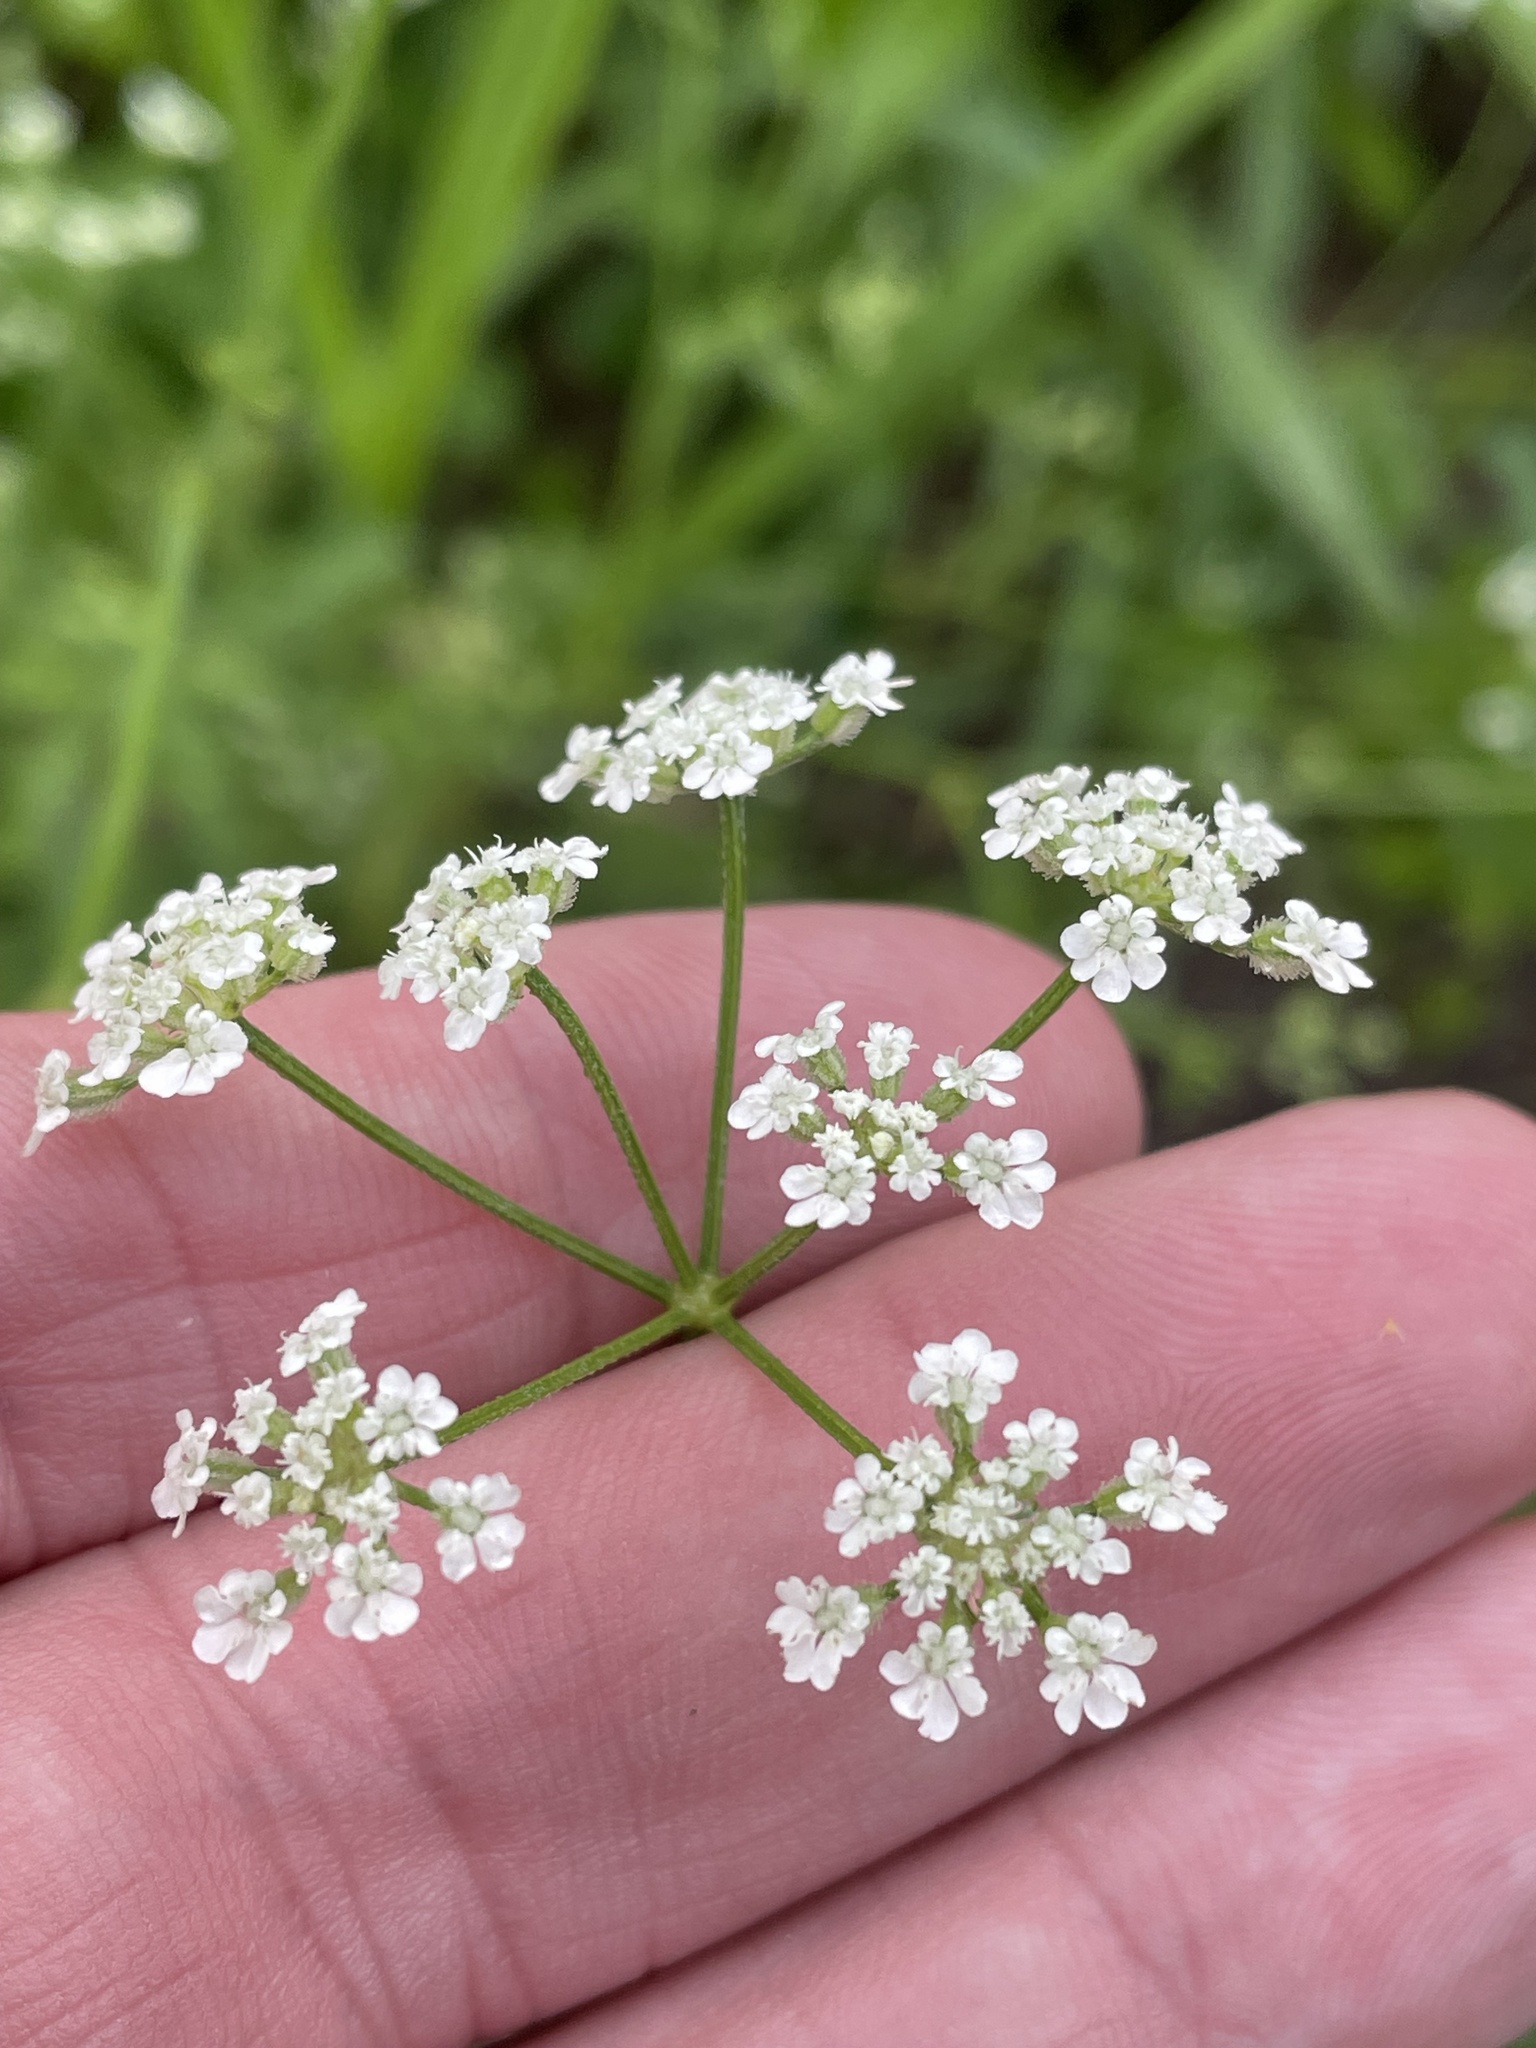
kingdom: Plantae
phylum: Tracheophyta
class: Magnoliopsida
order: Apiales
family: Apiaceae
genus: Torilis
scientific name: Torilis arvensis
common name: Spreading hedge-parsley
